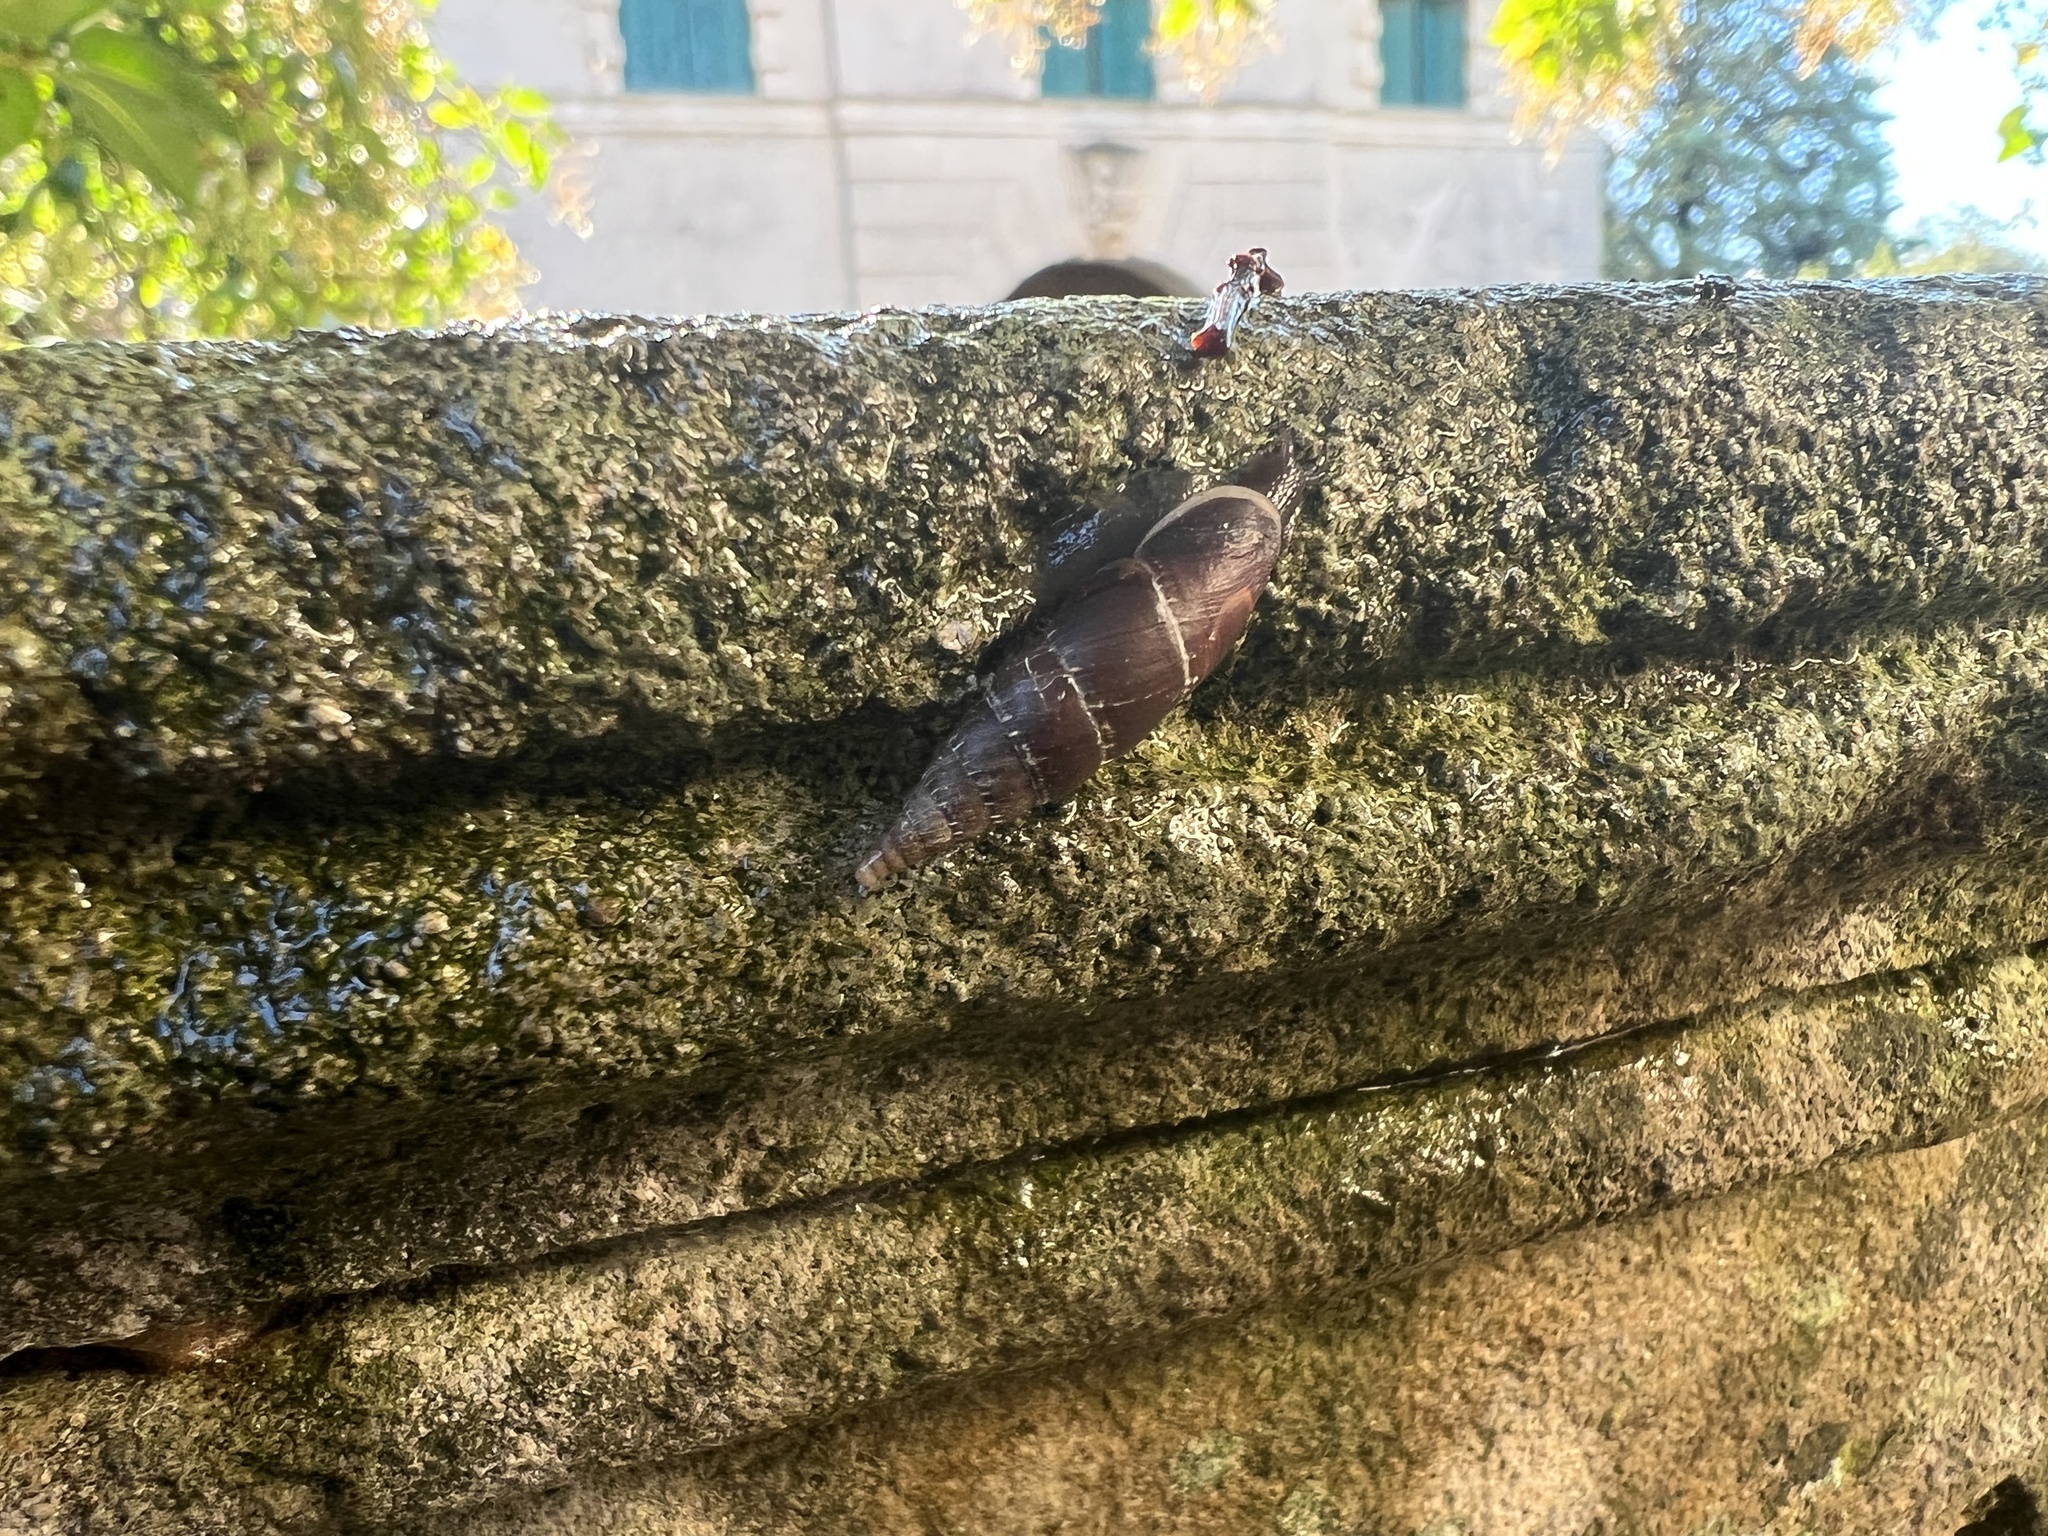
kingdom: Animalia
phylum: Mollusca
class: Gastropoda
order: Stylommatophora
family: Clausiliidae
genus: Charpentieria
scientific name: Charpentieria itala
